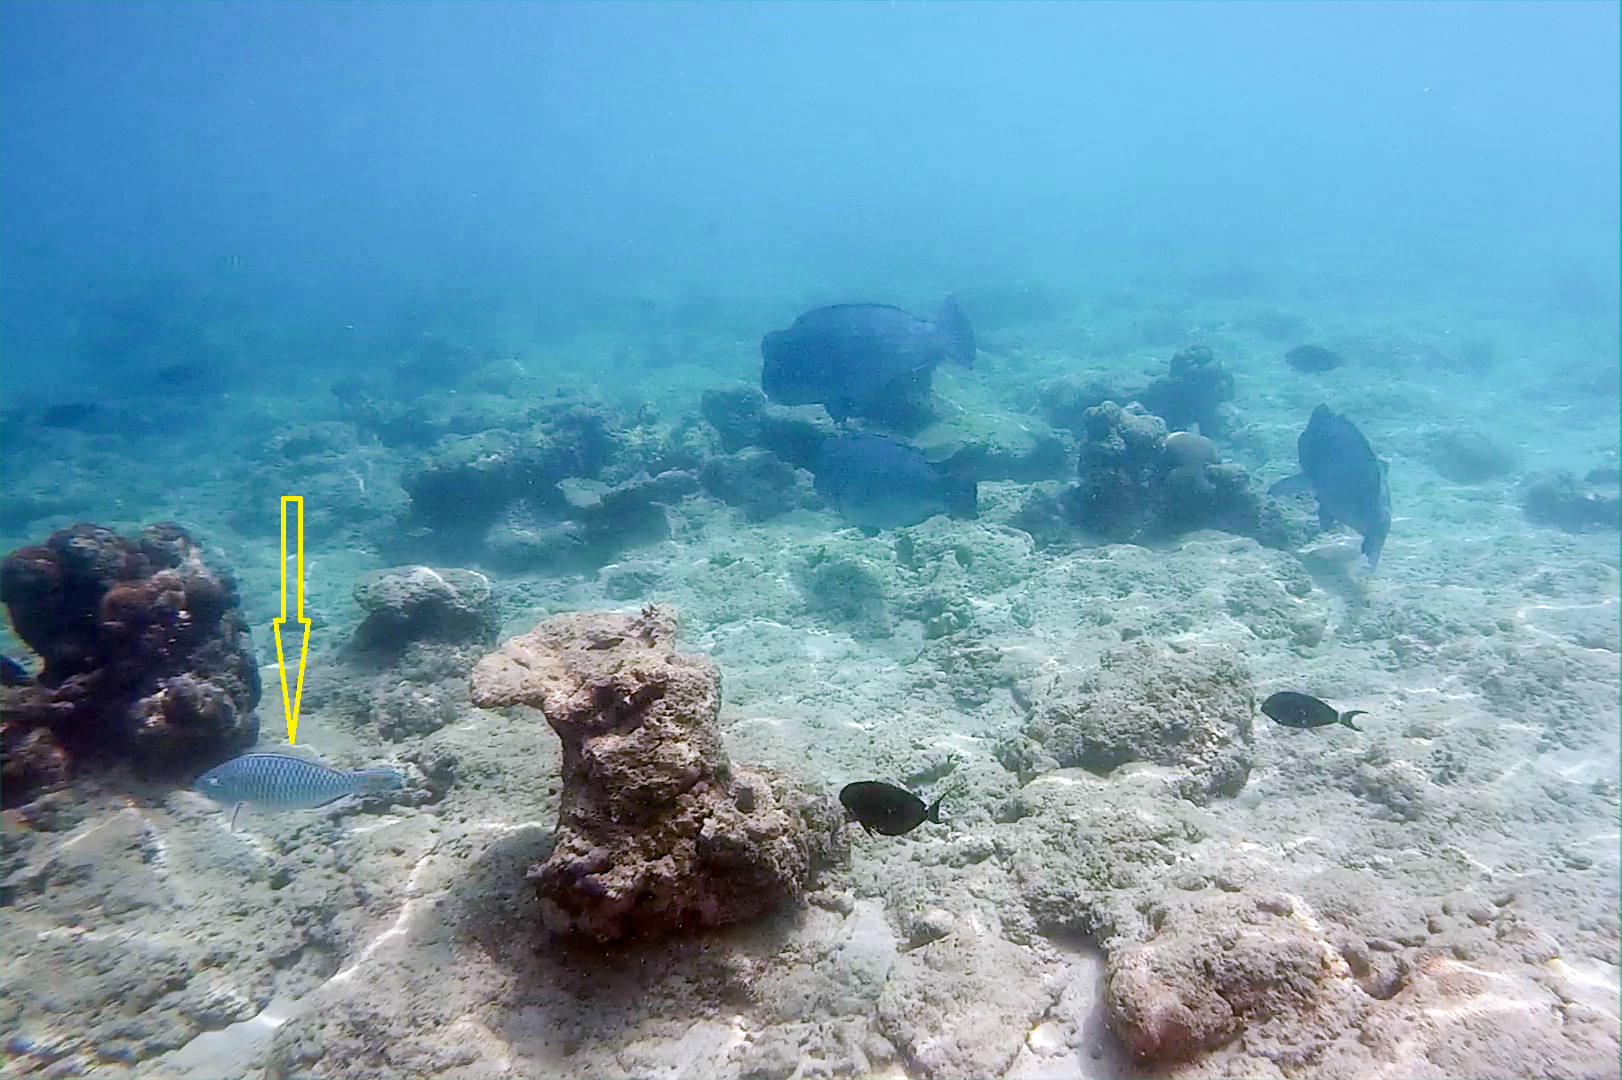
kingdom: Animalia
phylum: Chordata
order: Perciformes
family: Scaridae
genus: Scarus
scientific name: Scarus ghobban
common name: Blue-barred parrotfish
